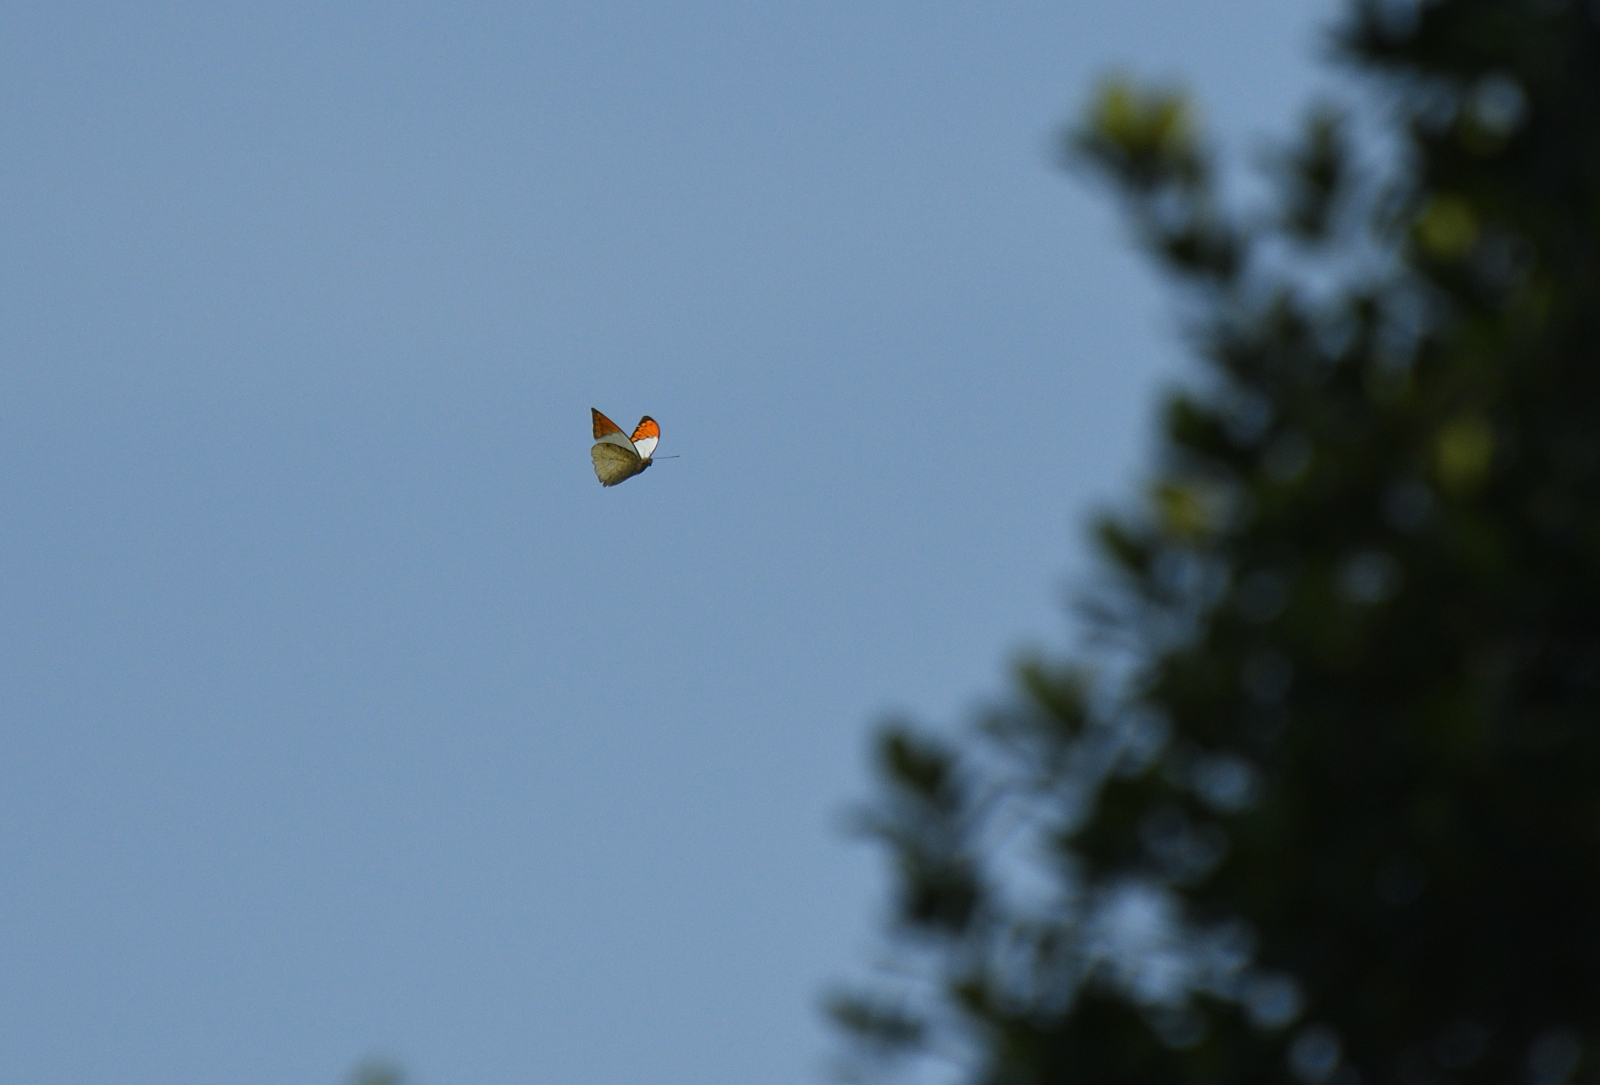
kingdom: Animalia
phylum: Arthropoda
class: Insecta
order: Lepidoptera
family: Pieridae
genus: Hebomoia
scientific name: Hebomoia glaucippe
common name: Great orange tip
